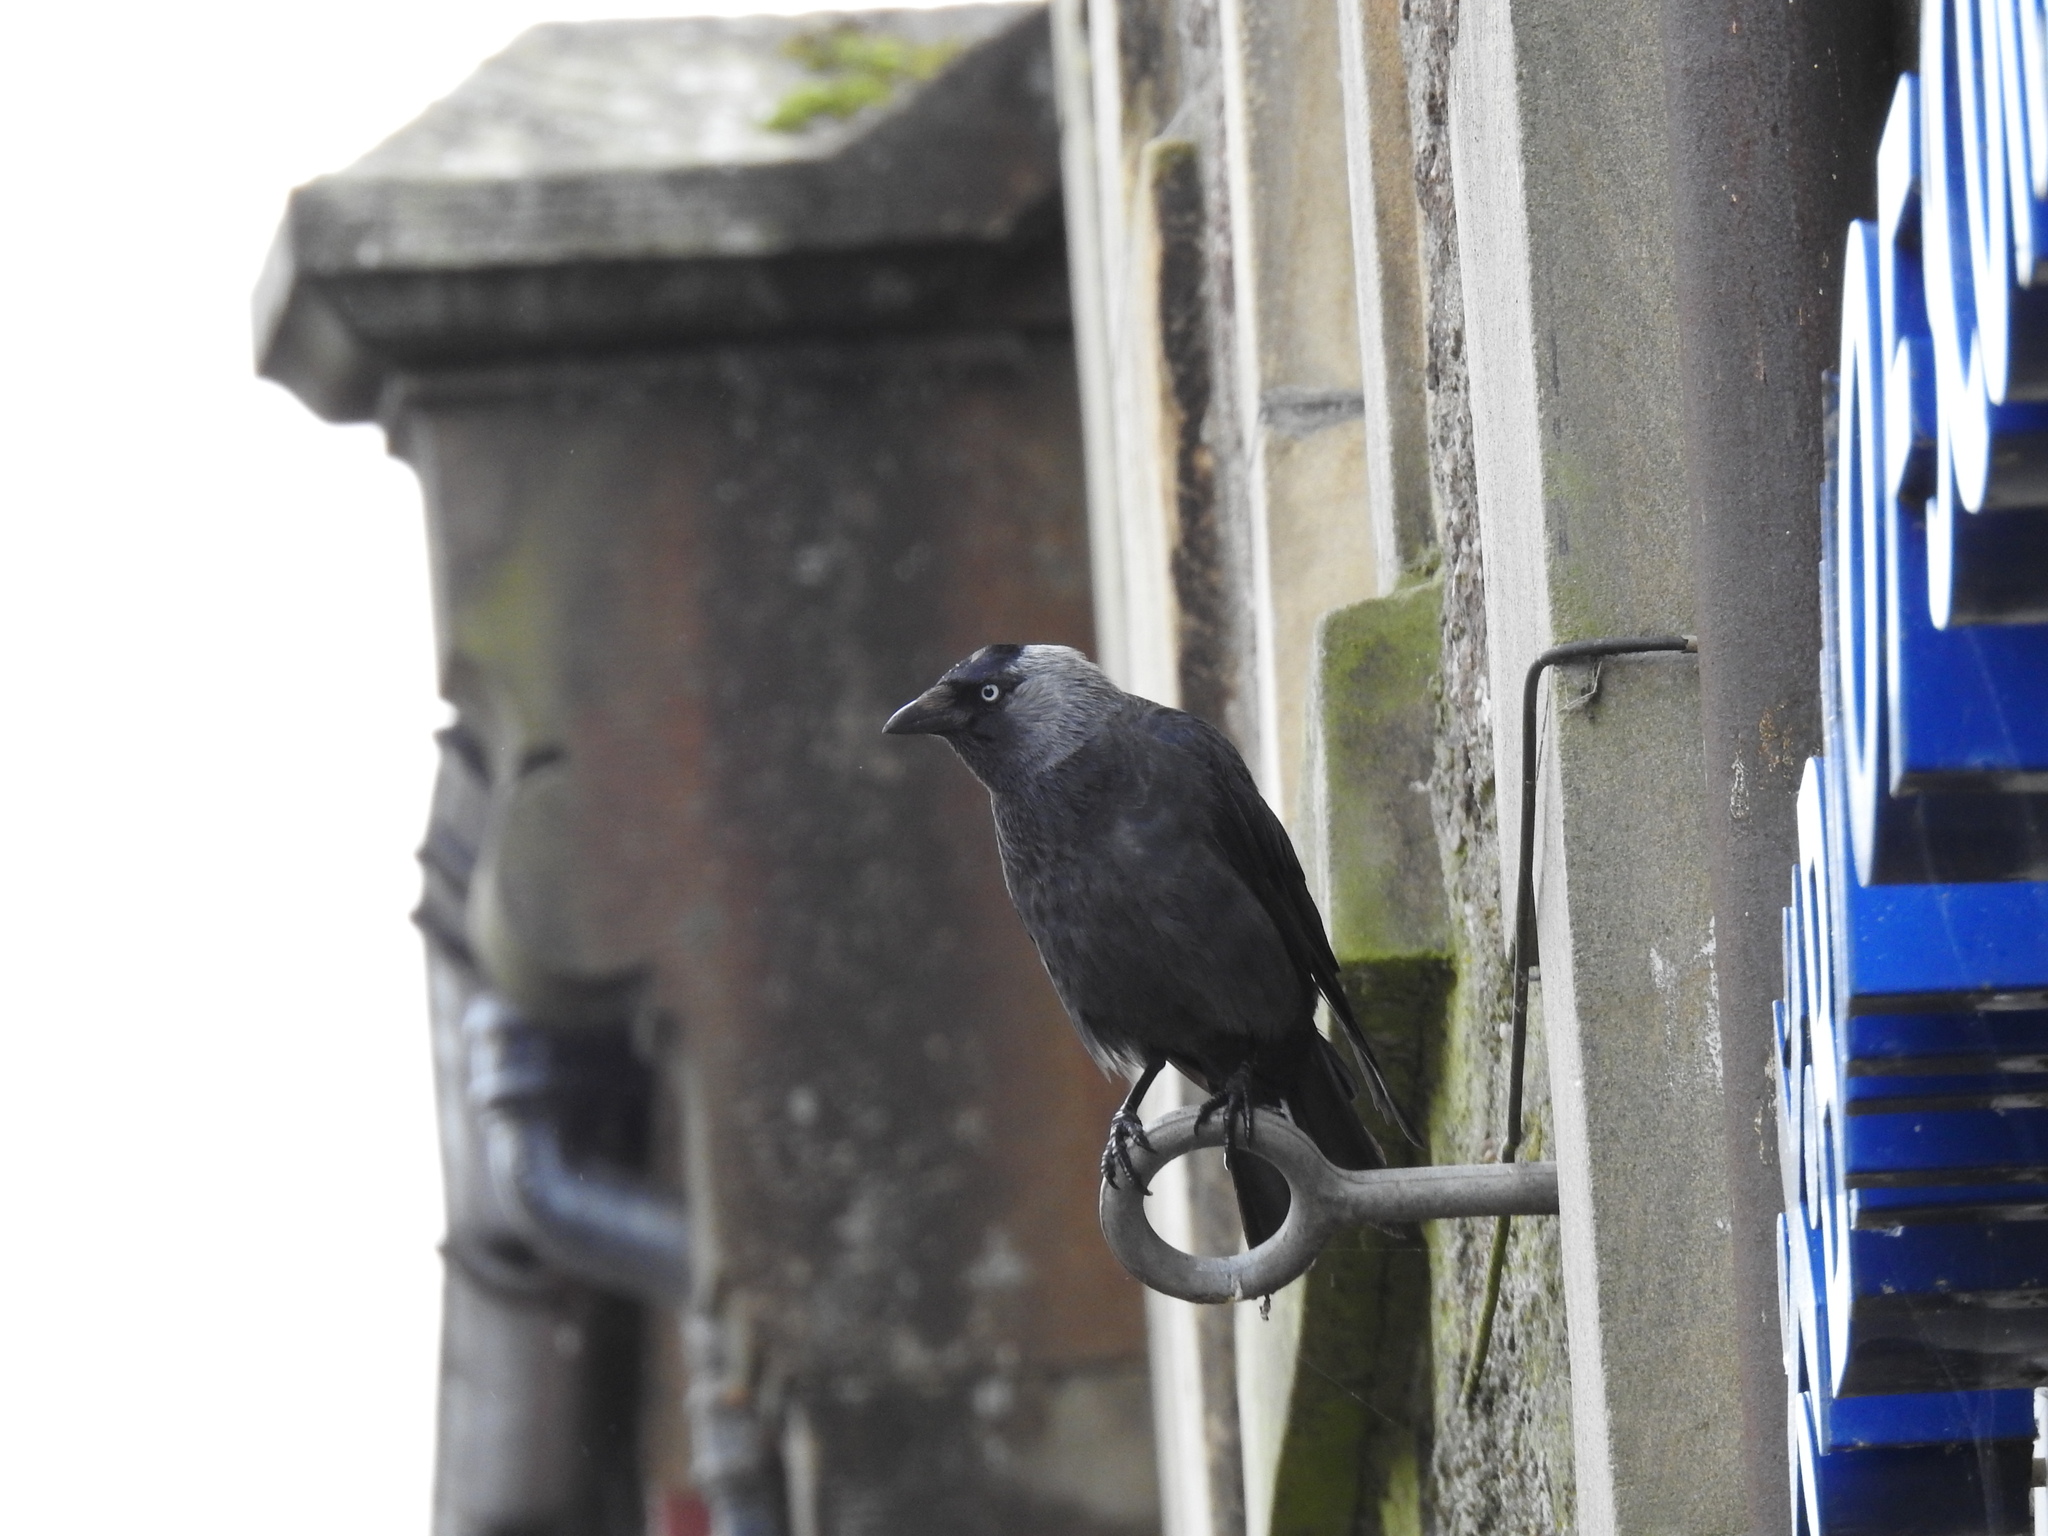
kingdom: Animalia
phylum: Chordata
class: Aves
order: Passeriformes
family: Corvidae
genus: Coloeus
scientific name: Coloeus monedula
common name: Western jackdaw
